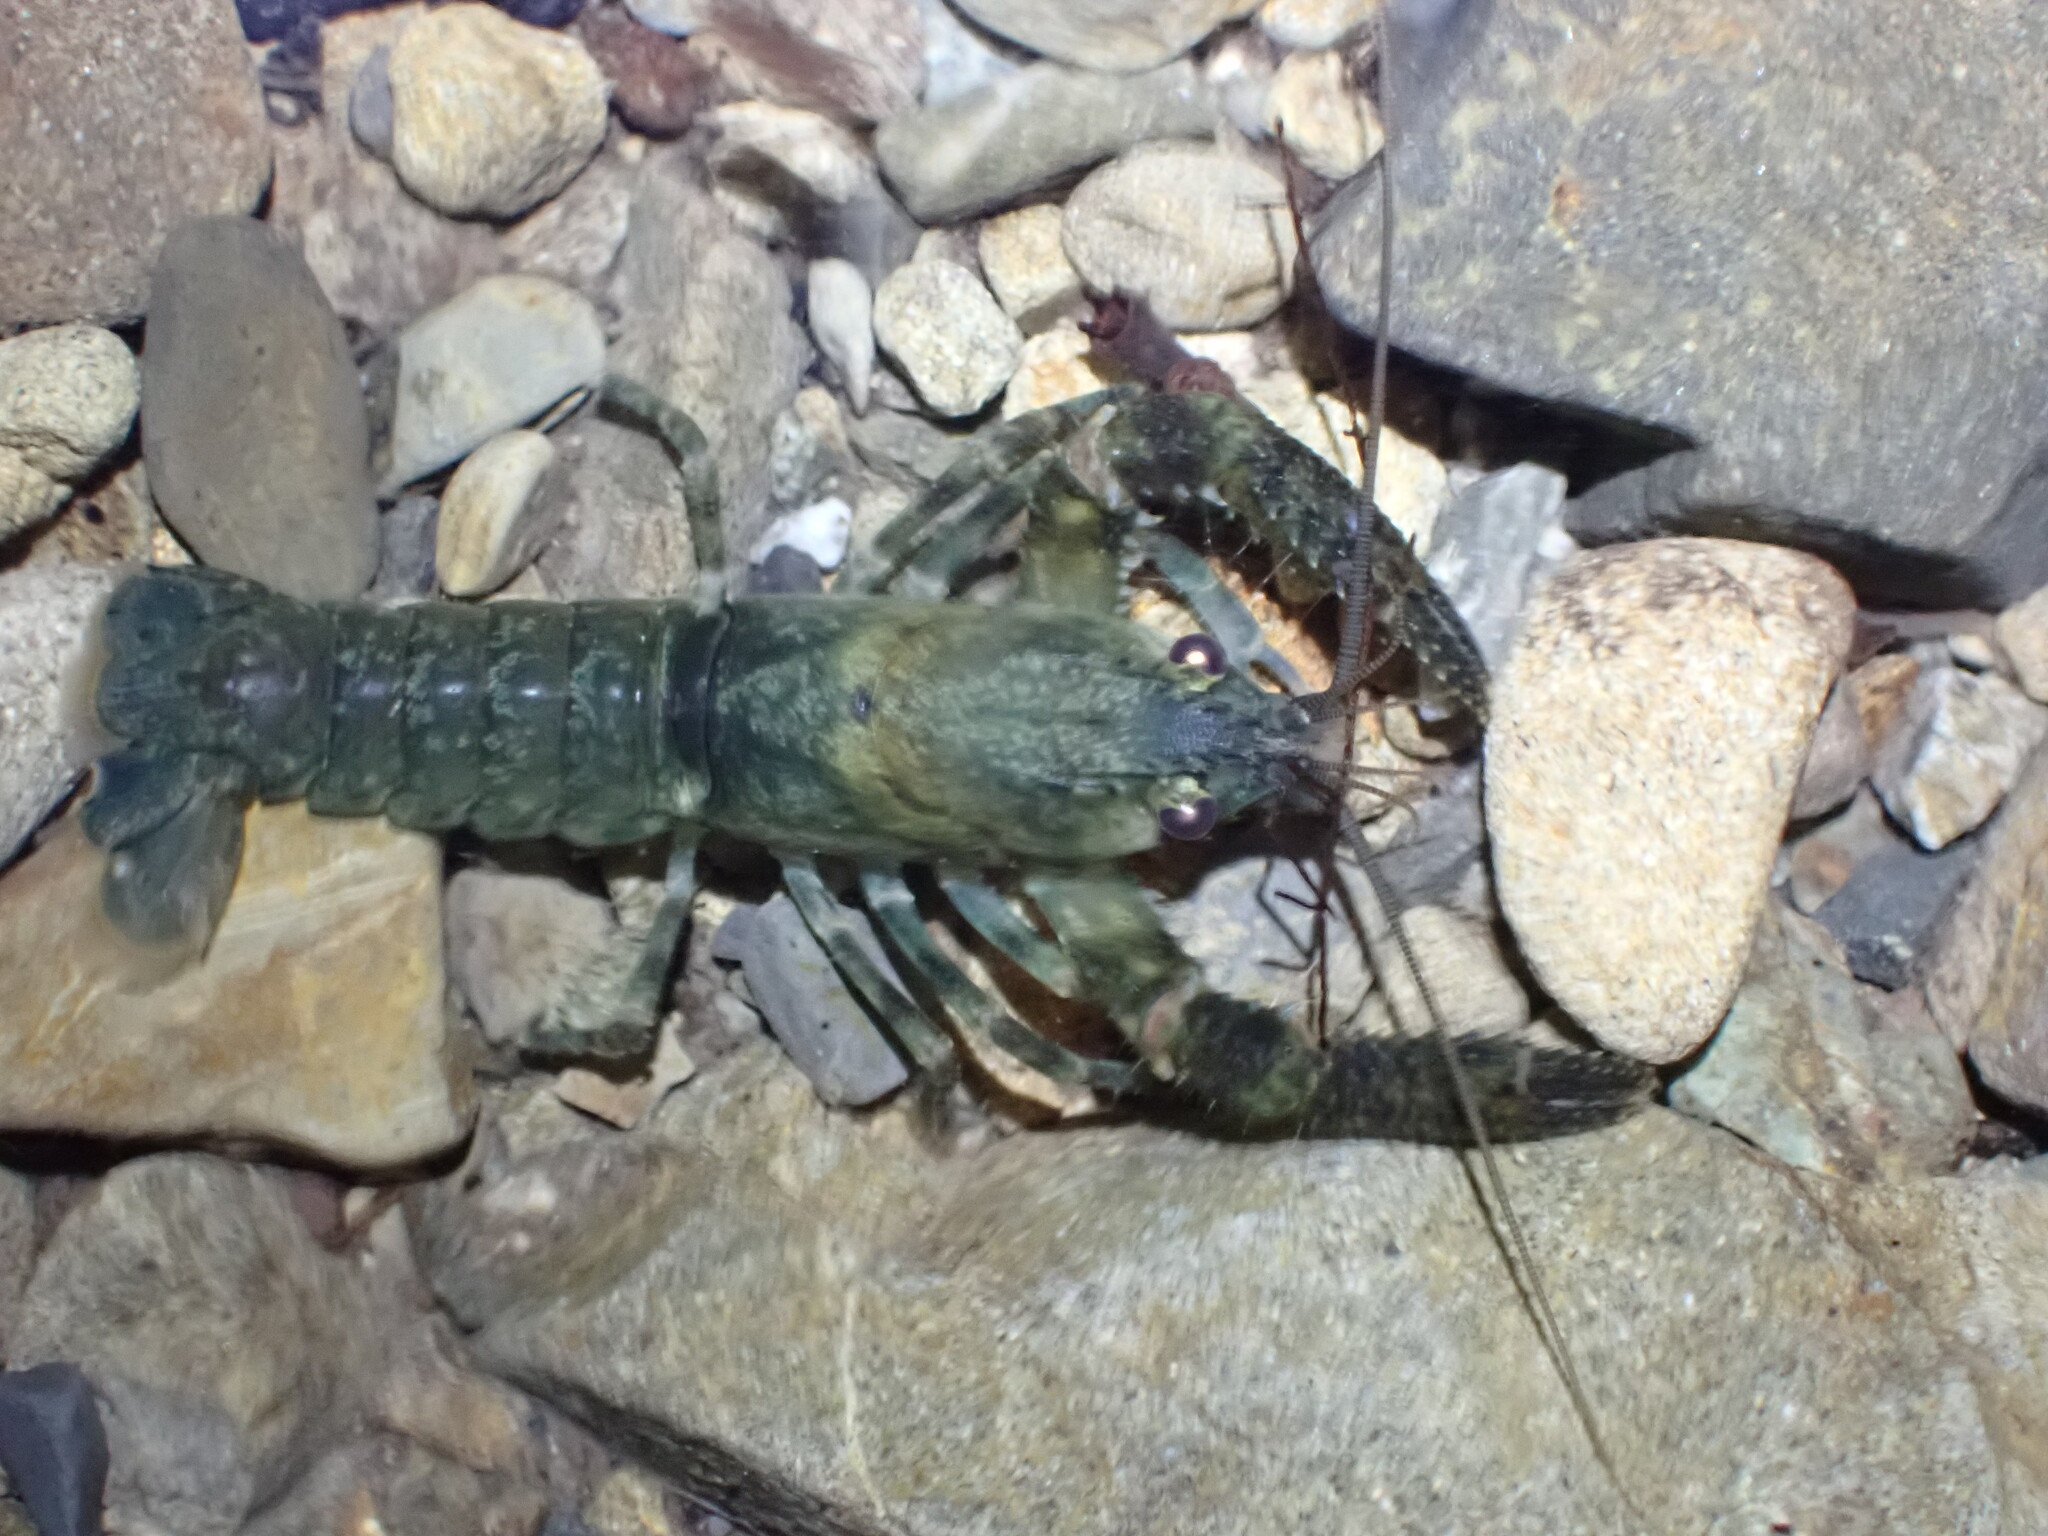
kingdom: Animalia
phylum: Arthropoda
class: Malacostraca
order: Decapoda
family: Parastacidae
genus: Paranephrops
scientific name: Paranephrops planifrons
